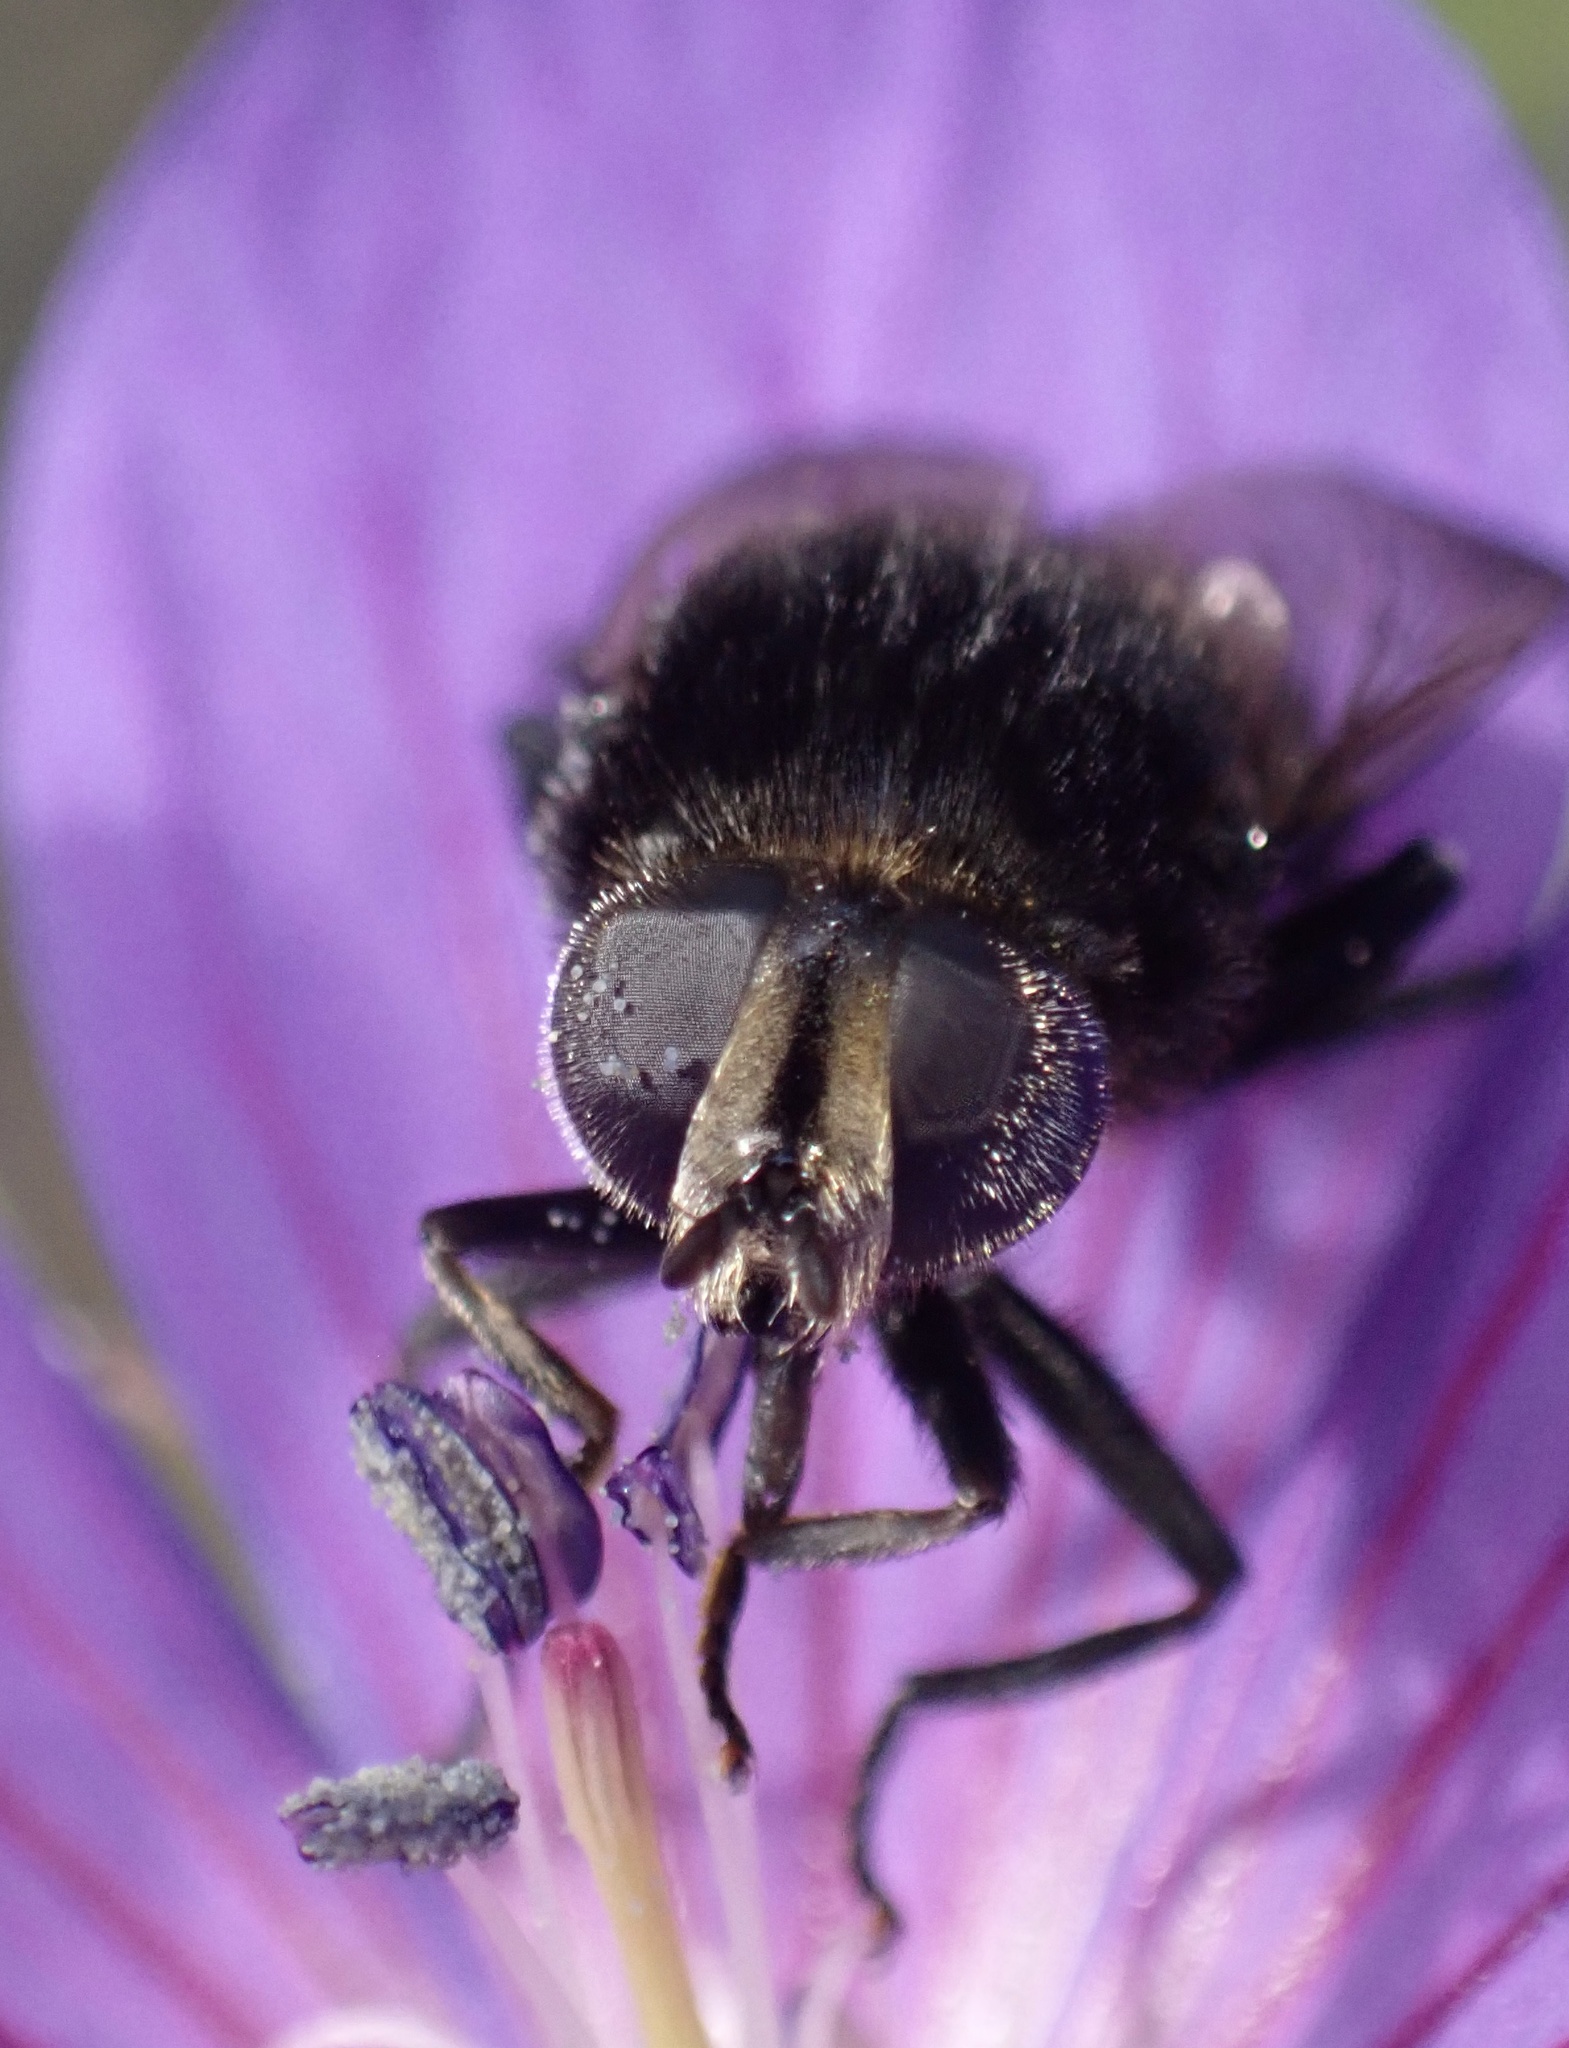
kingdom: Animalia
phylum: Arthropoda
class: Insecta
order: Diptera
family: Syrphidae
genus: Merodon
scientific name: Merodon equestris
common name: Greater bulb-fly
